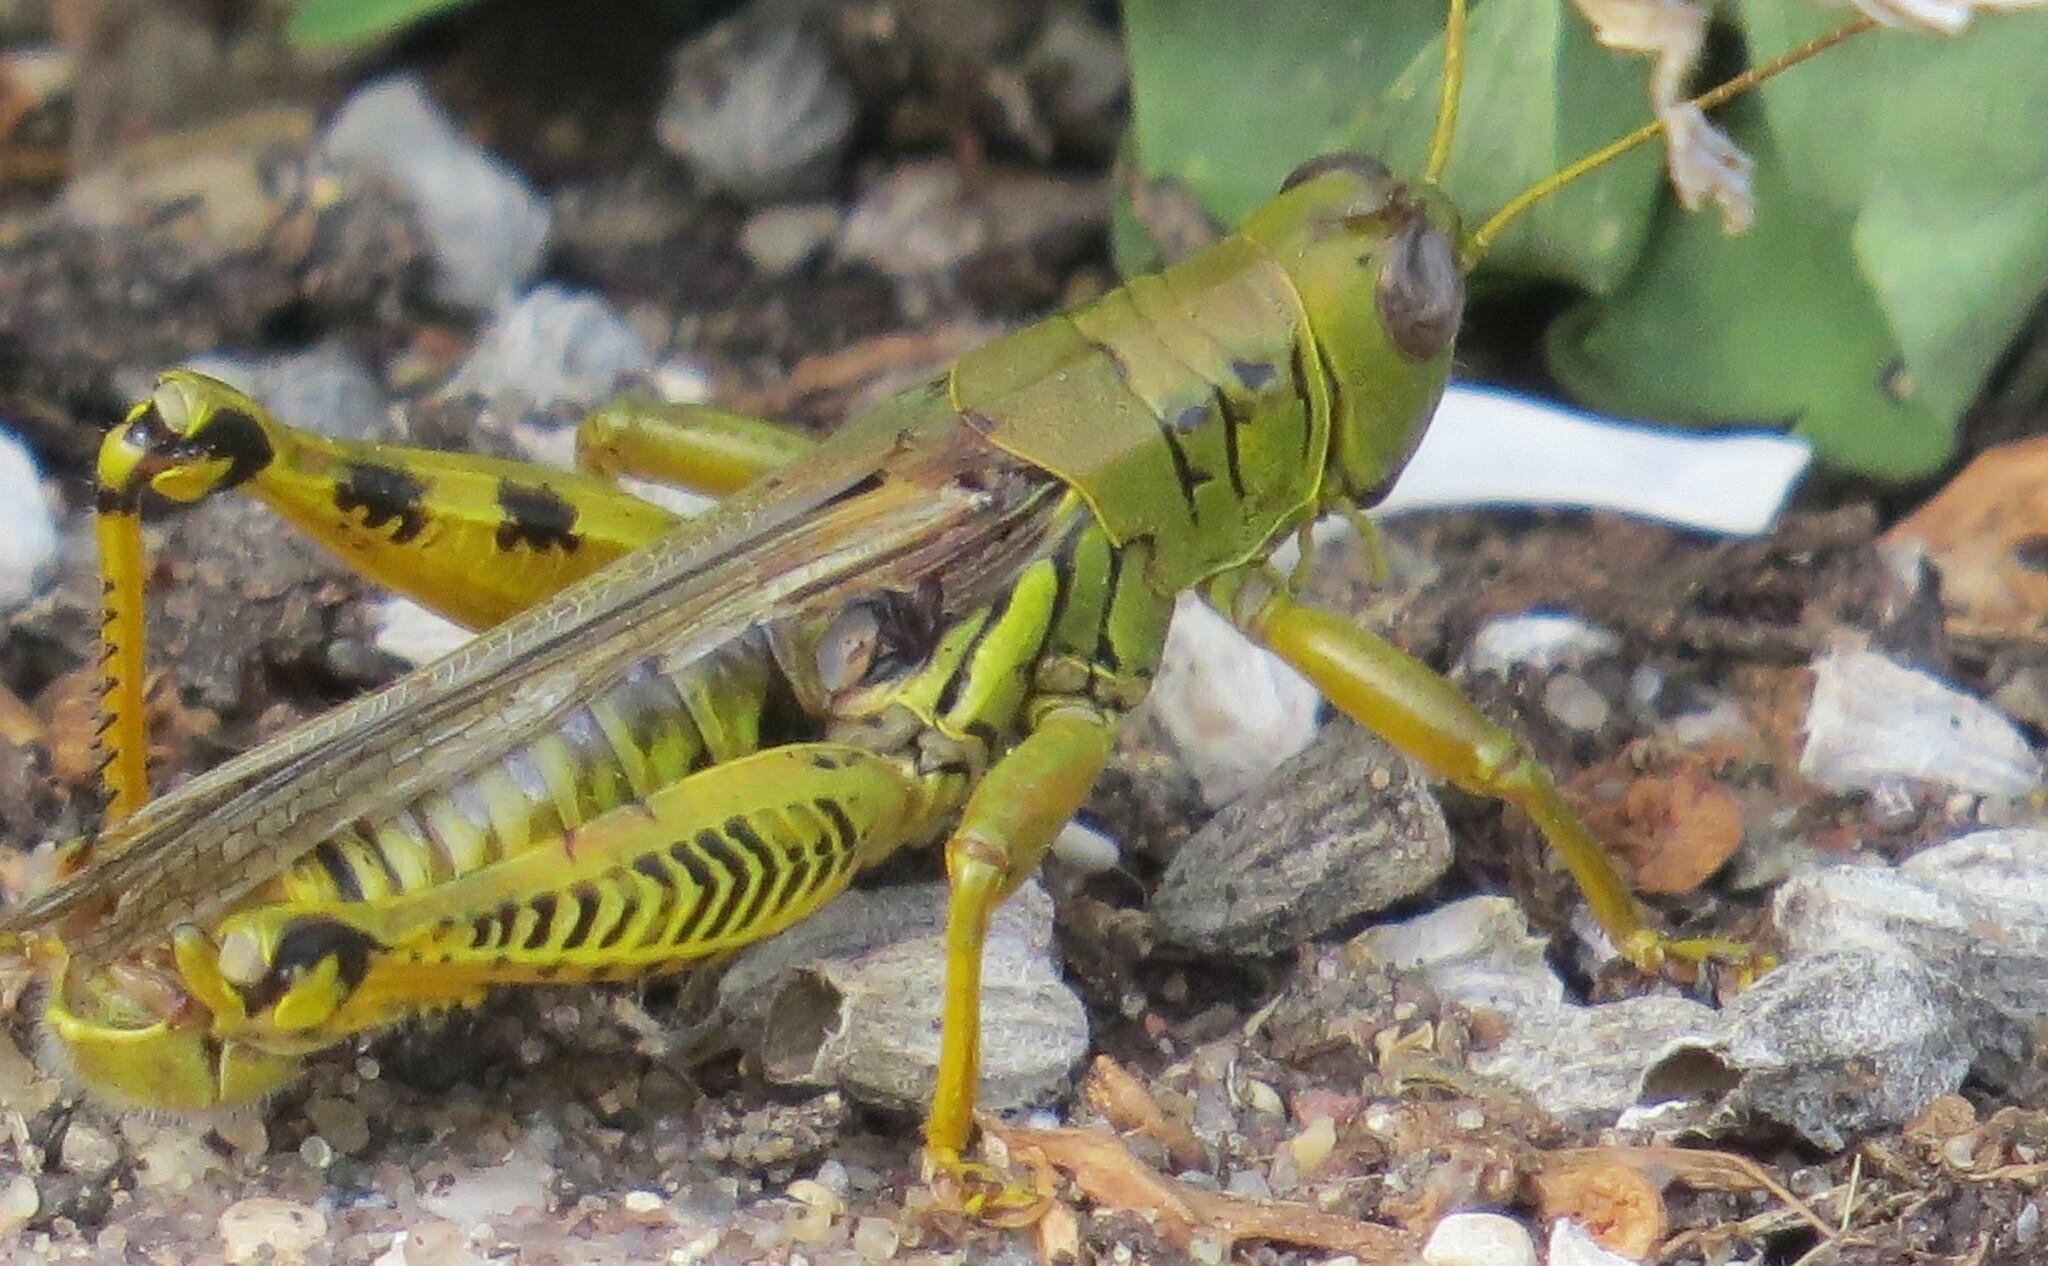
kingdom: Animalia
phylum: Arthropoda
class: Insecta
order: Orthoptera
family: Acrididae
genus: Melanoplus
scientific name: Melanoplus differentialis
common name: Differential grasshopper
